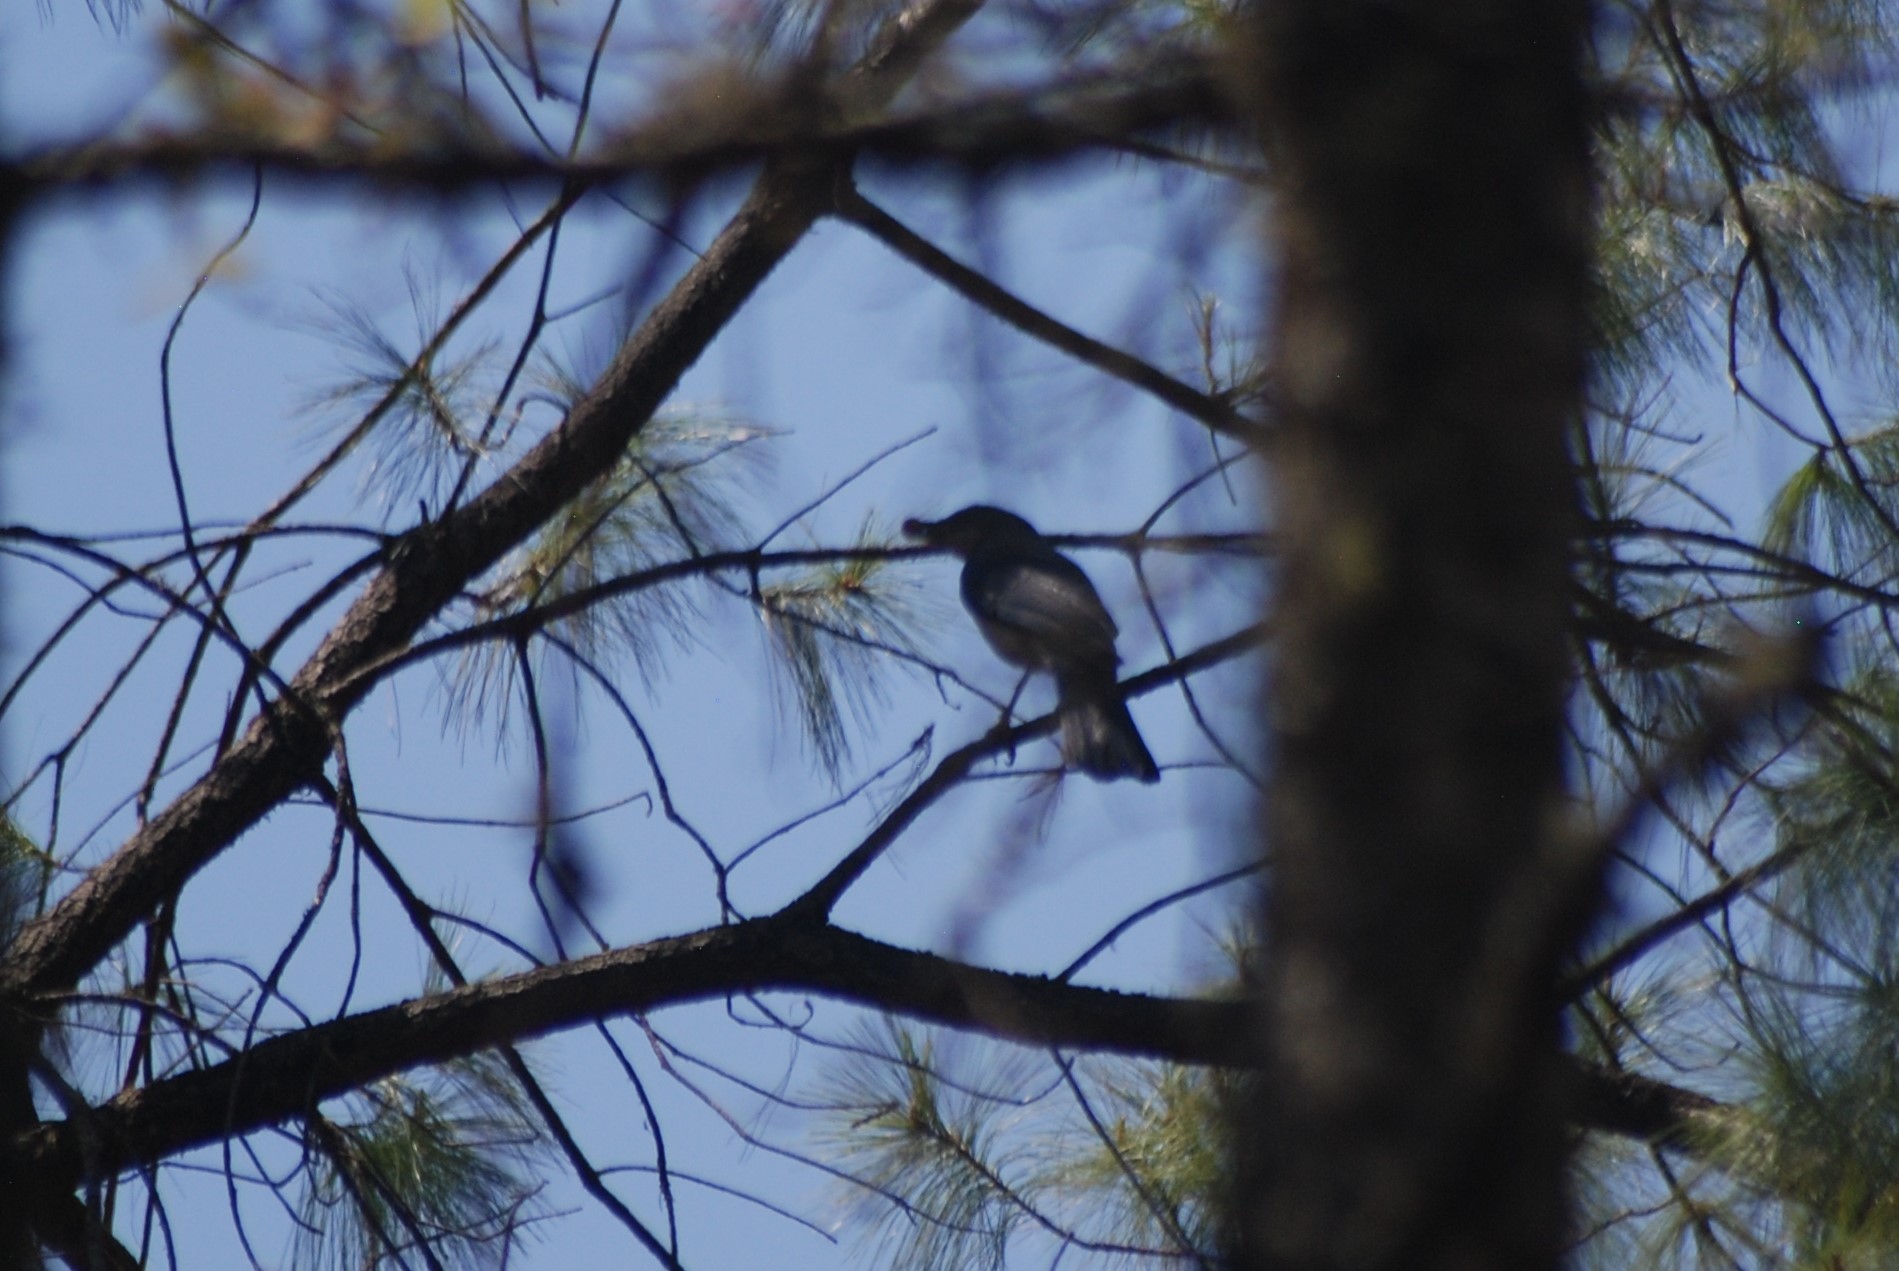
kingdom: Animalia
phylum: Chordata
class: Aves
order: Passeriformes
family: Corvidae
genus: Aphelocoma
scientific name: Aphelocoma ultramarina
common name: Transvolcanic jay
